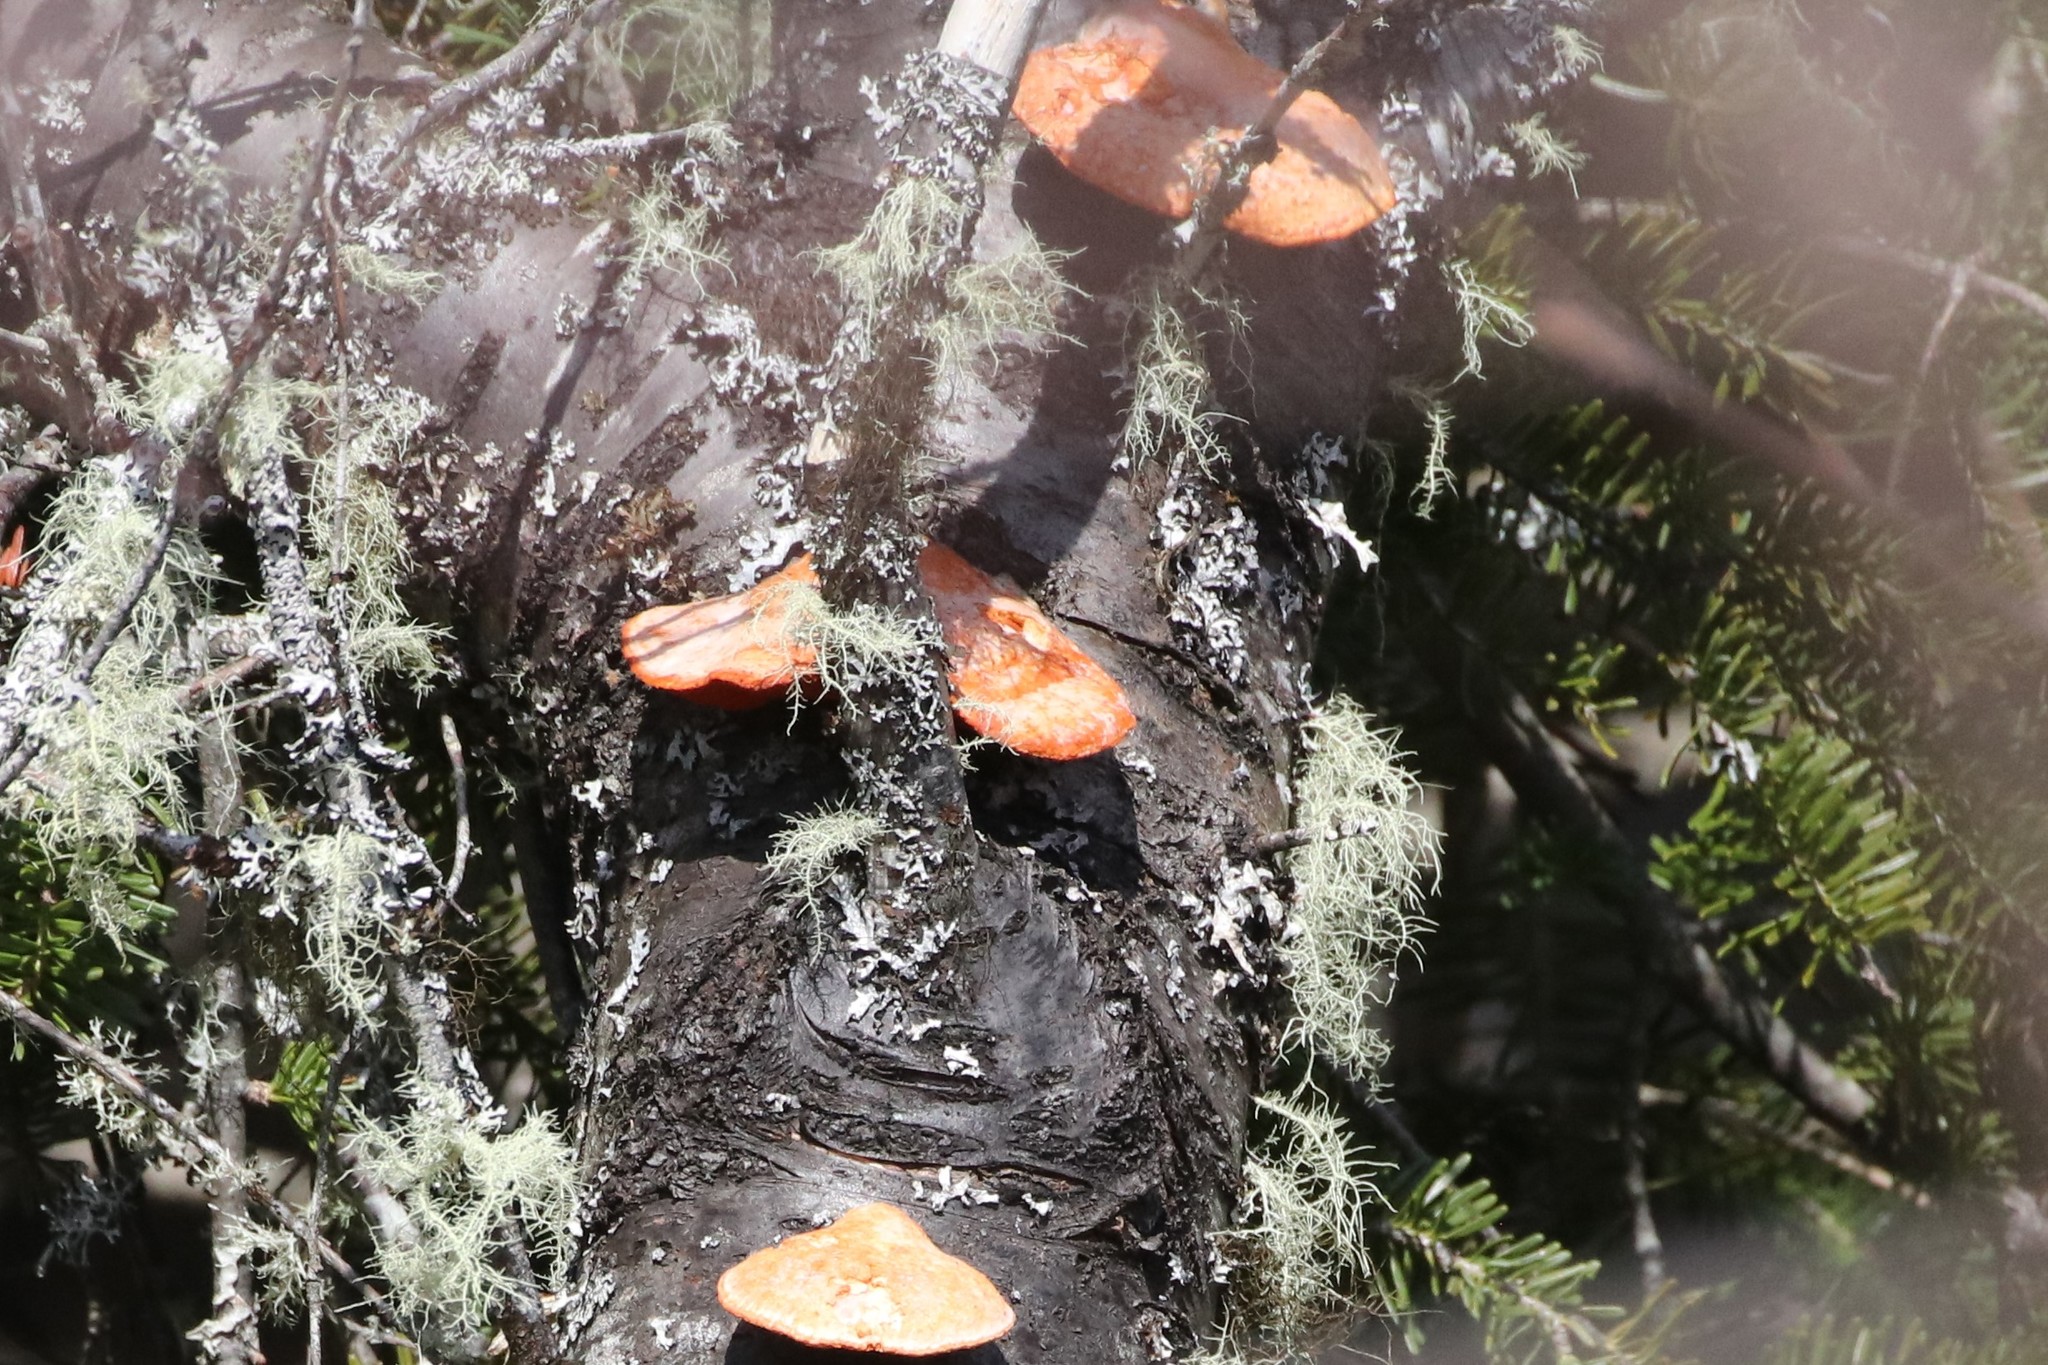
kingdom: Fungi
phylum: Basidiomycota
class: Agaricomycetes
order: Polyporales
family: Polyporaceae
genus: Trametes
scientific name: Trametes cinnabarina
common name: Northern cinnabar polypore
